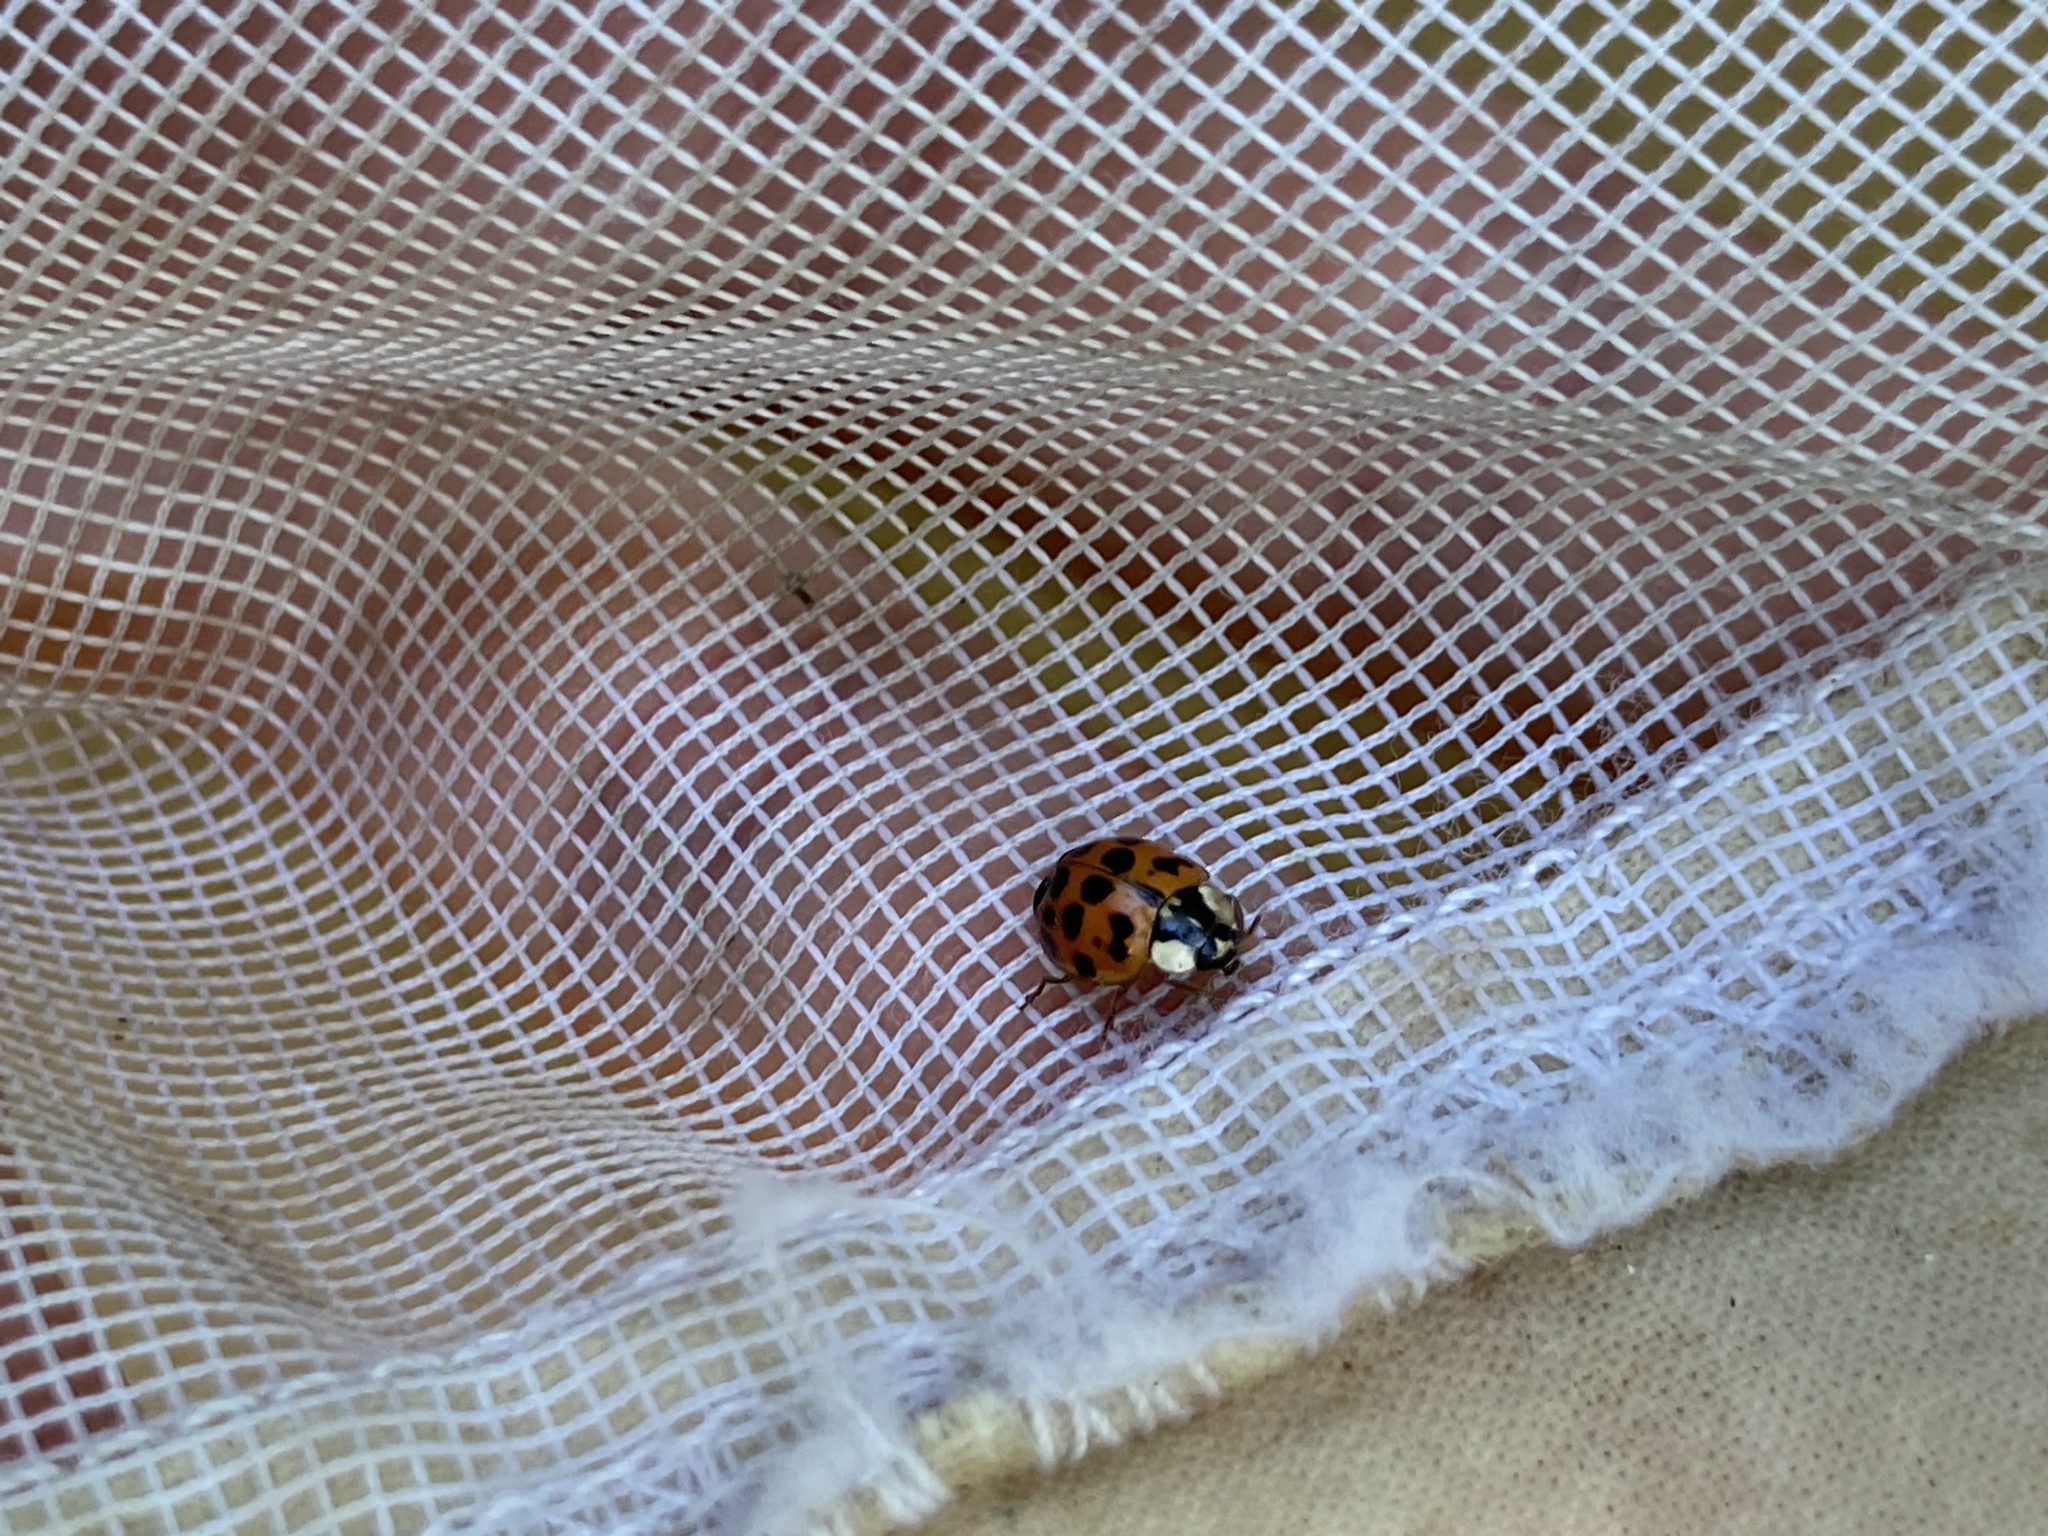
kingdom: Animalia
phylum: Arthropoda
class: Insecta
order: Coleoptera
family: Coccinellidae
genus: Harmonia
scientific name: Harmonia axyridis
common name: Harlequin ladybird
